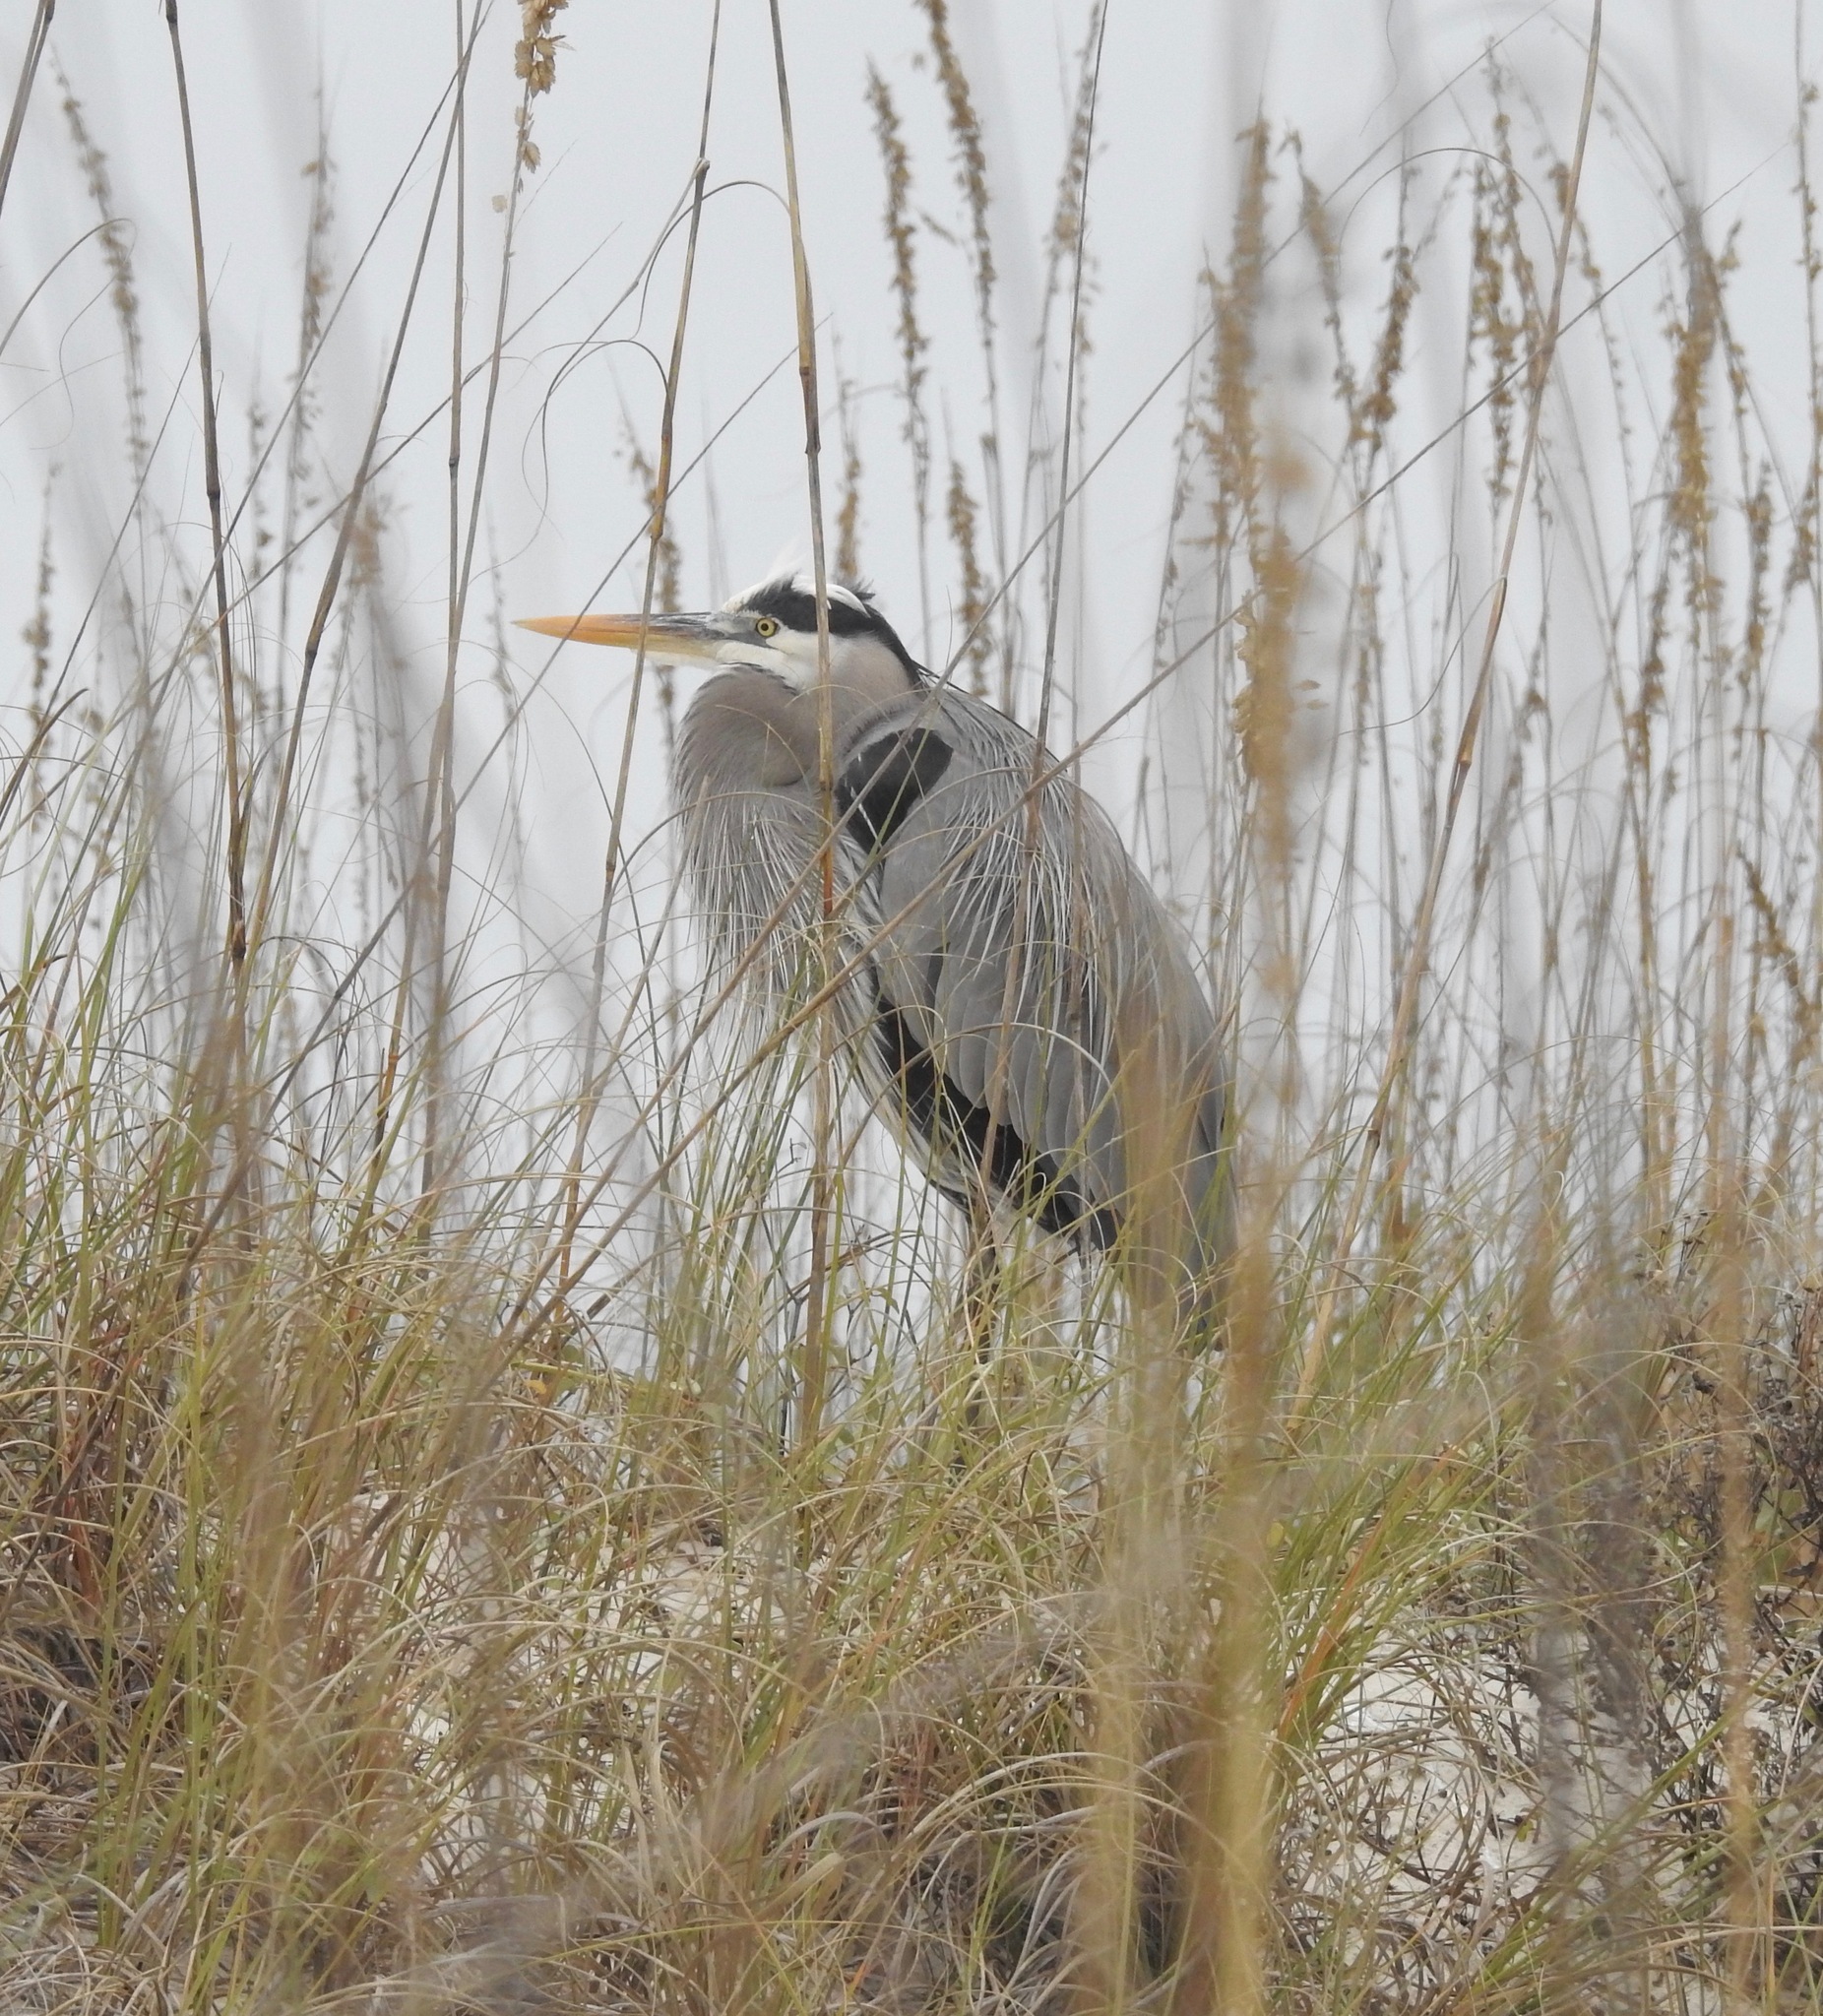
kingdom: Animalia
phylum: Chordata
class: Aves
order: Pelecaniformes
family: Ardeidae
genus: Ardea
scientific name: Ardea herodias
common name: Great blue heron
